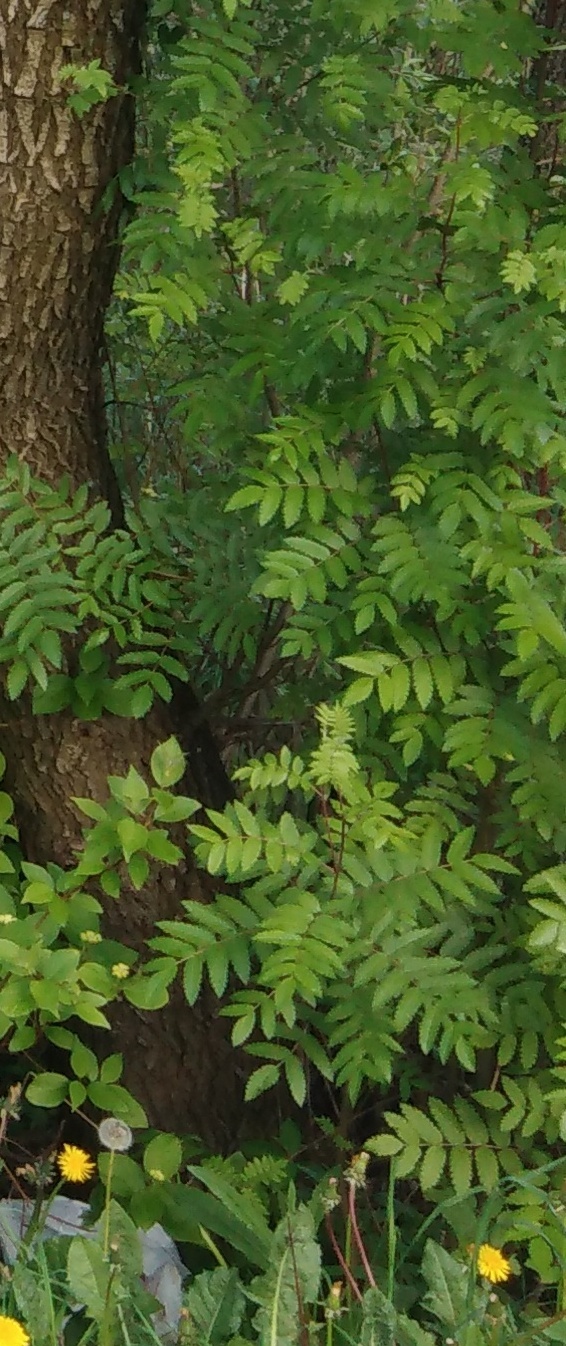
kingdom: Plantae
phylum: Tracheophyta
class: Magnoliopsida
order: Rosales
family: Rosaceae
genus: Sorbus
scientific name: Sorbus aucuparia
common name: Rowan
